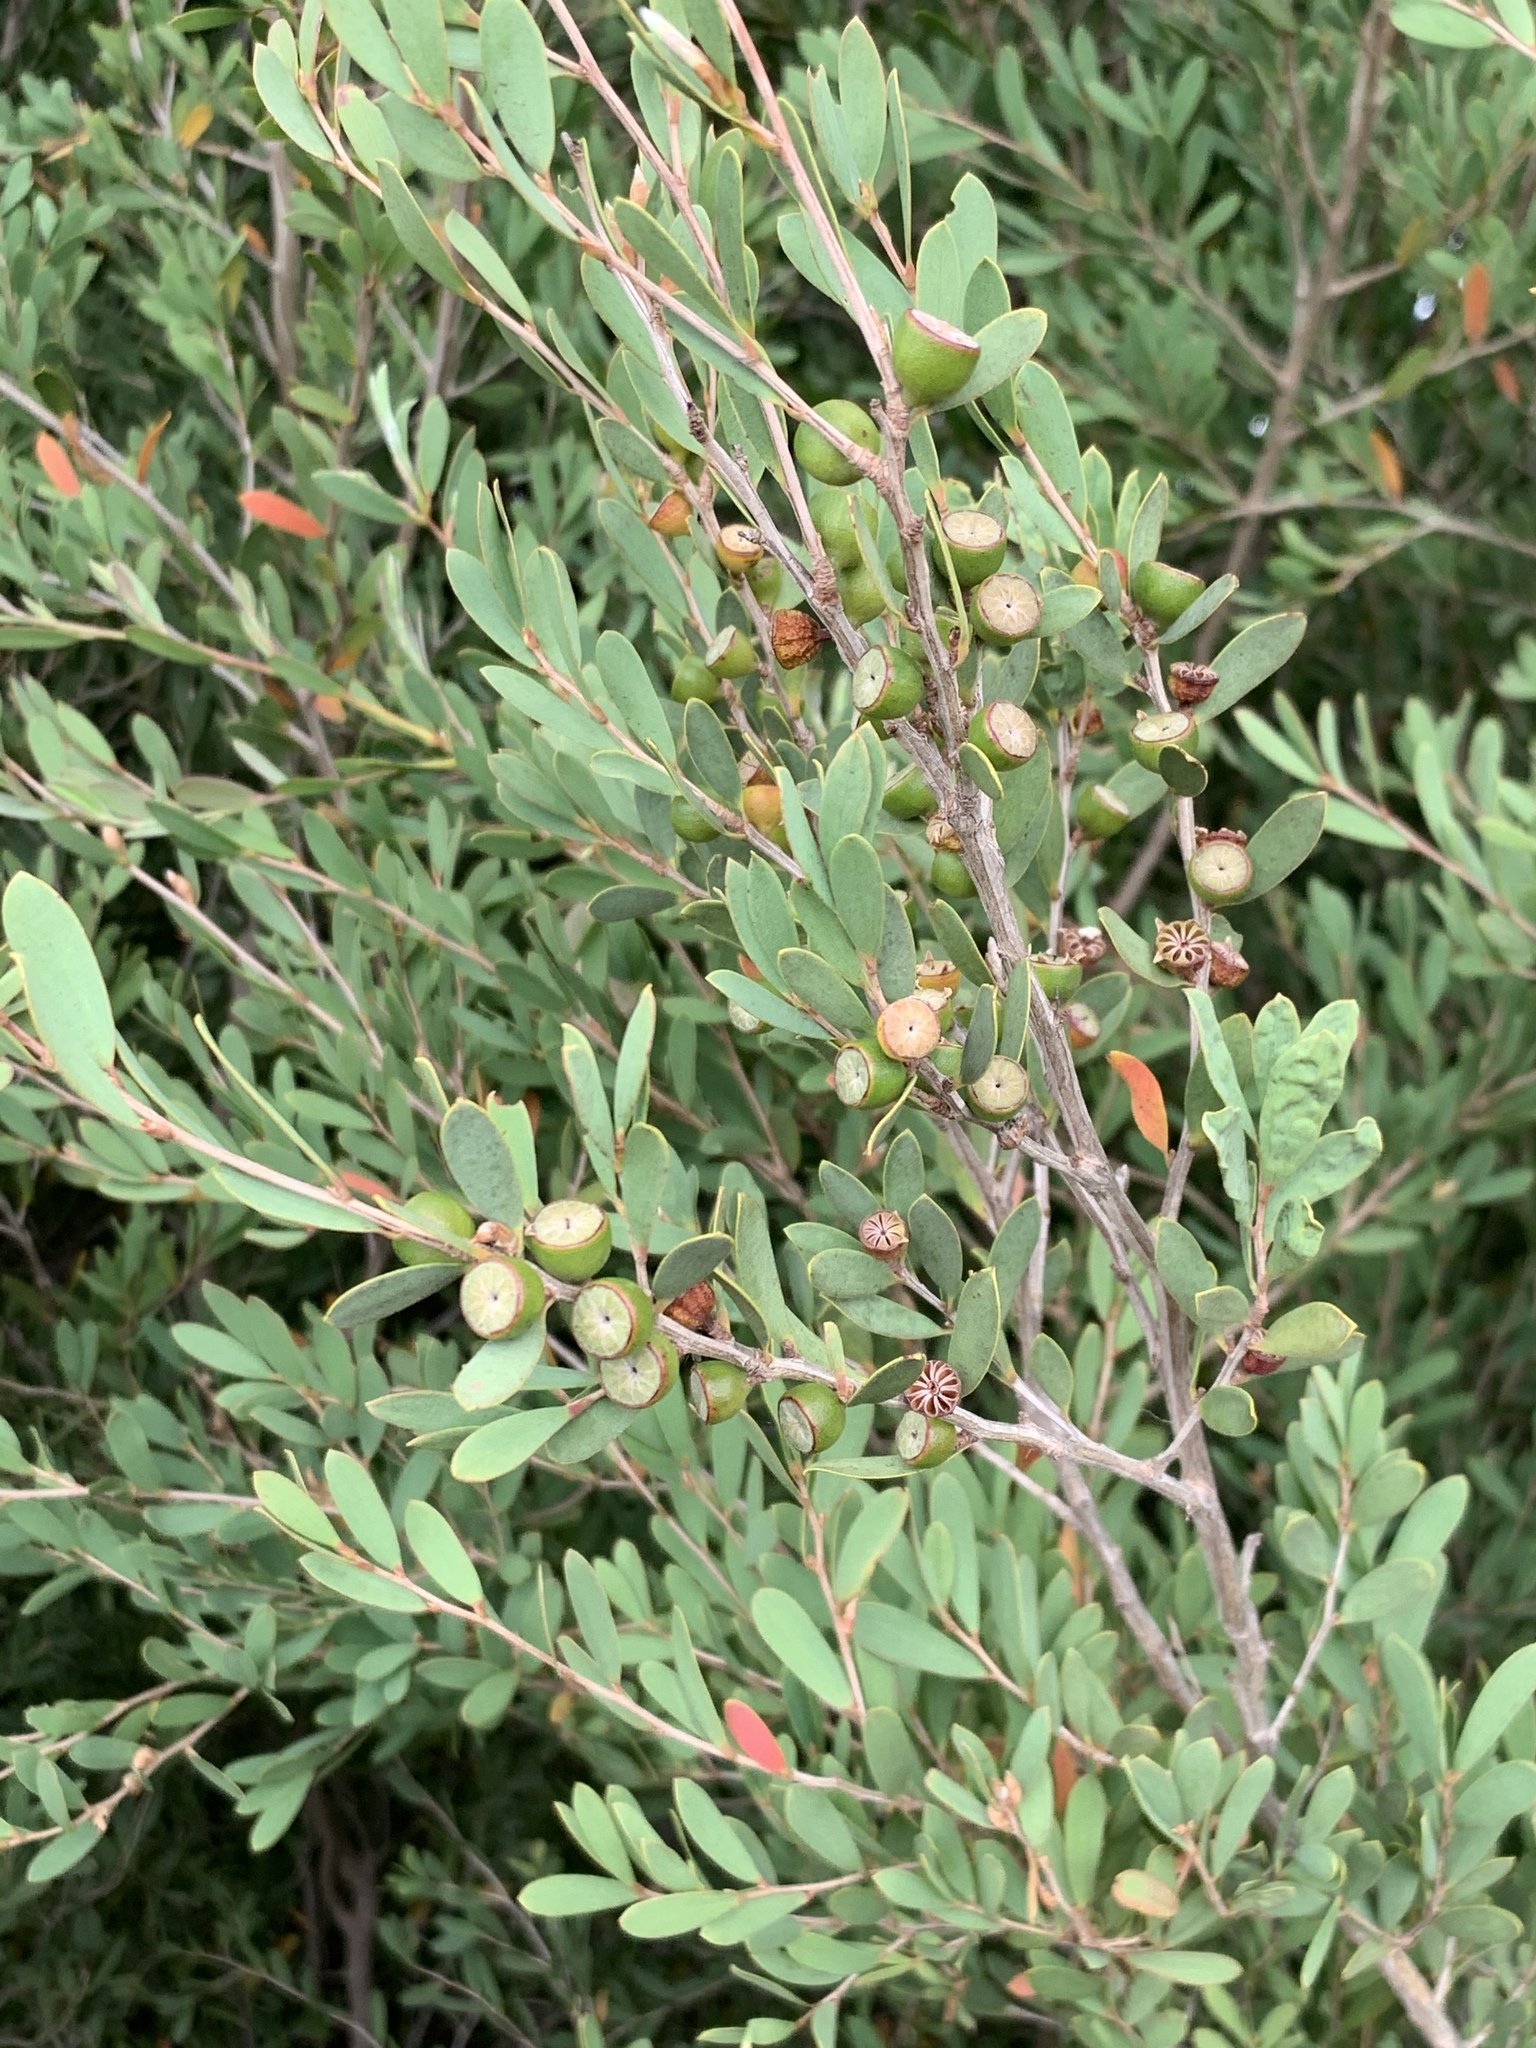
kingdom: Plantae
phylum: Tracheophyta
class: Magnoliopsida
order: Myrtales
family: Myrtaceae
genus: Leptospermum
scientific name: Leptospermum laevigatum
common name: Australian teatree
